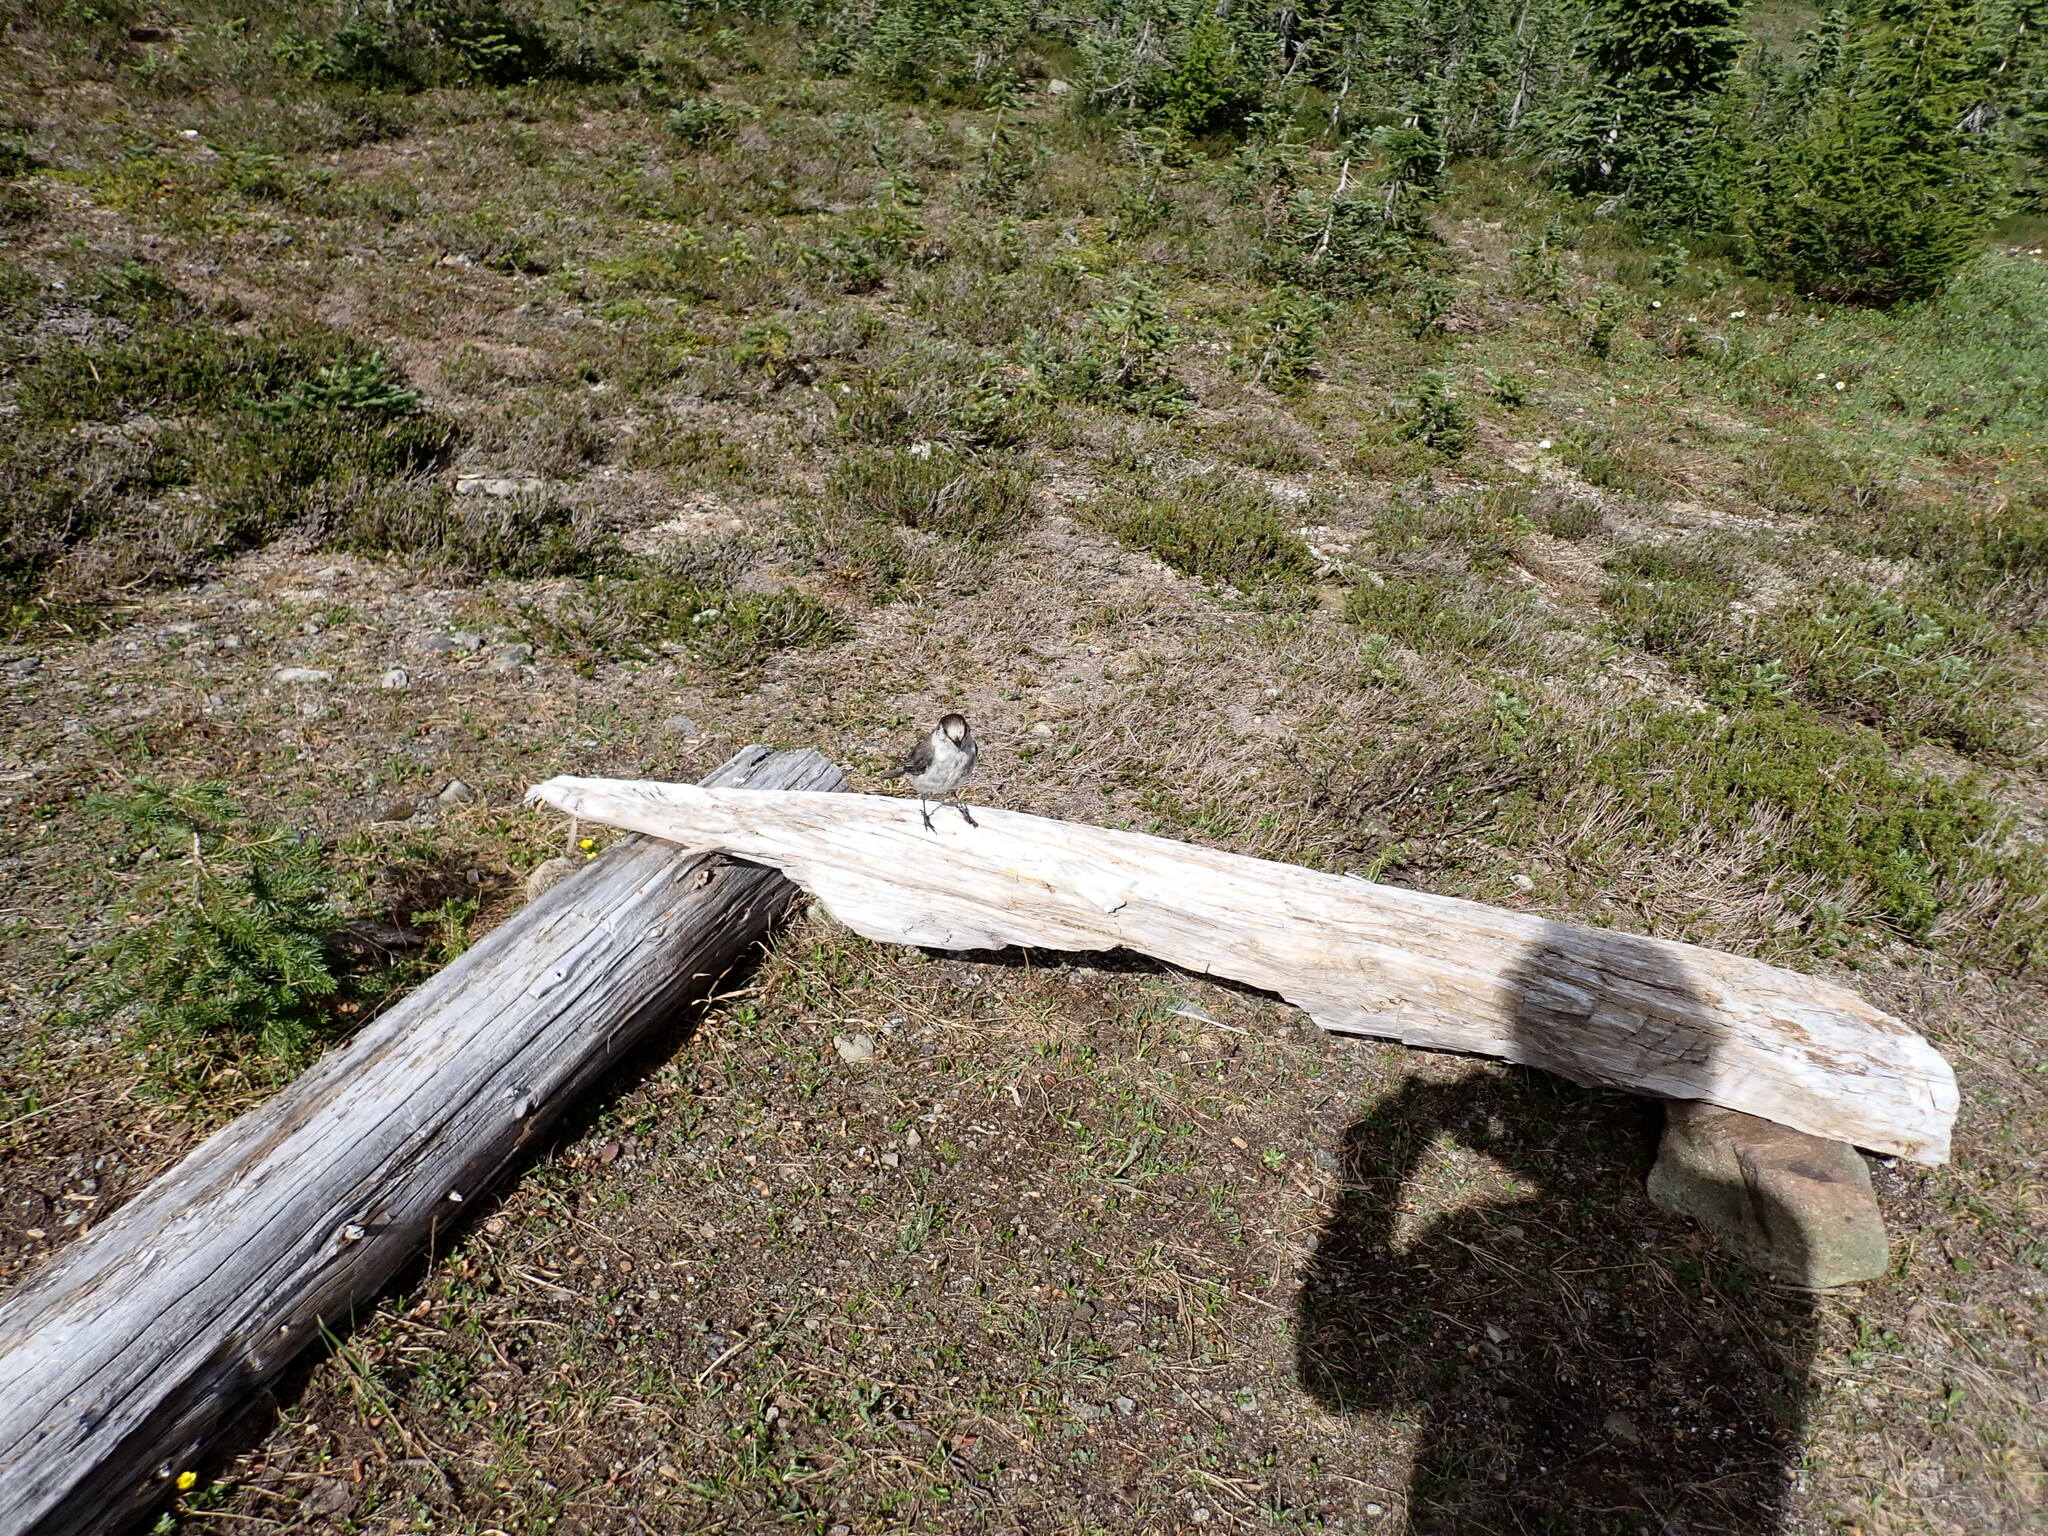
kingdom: Animalia
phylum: Chordata
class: Aves
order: Passeriformes
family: Corvidae
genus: Perisoreus
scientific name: Perisoreus canadensis
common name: Gray jay
